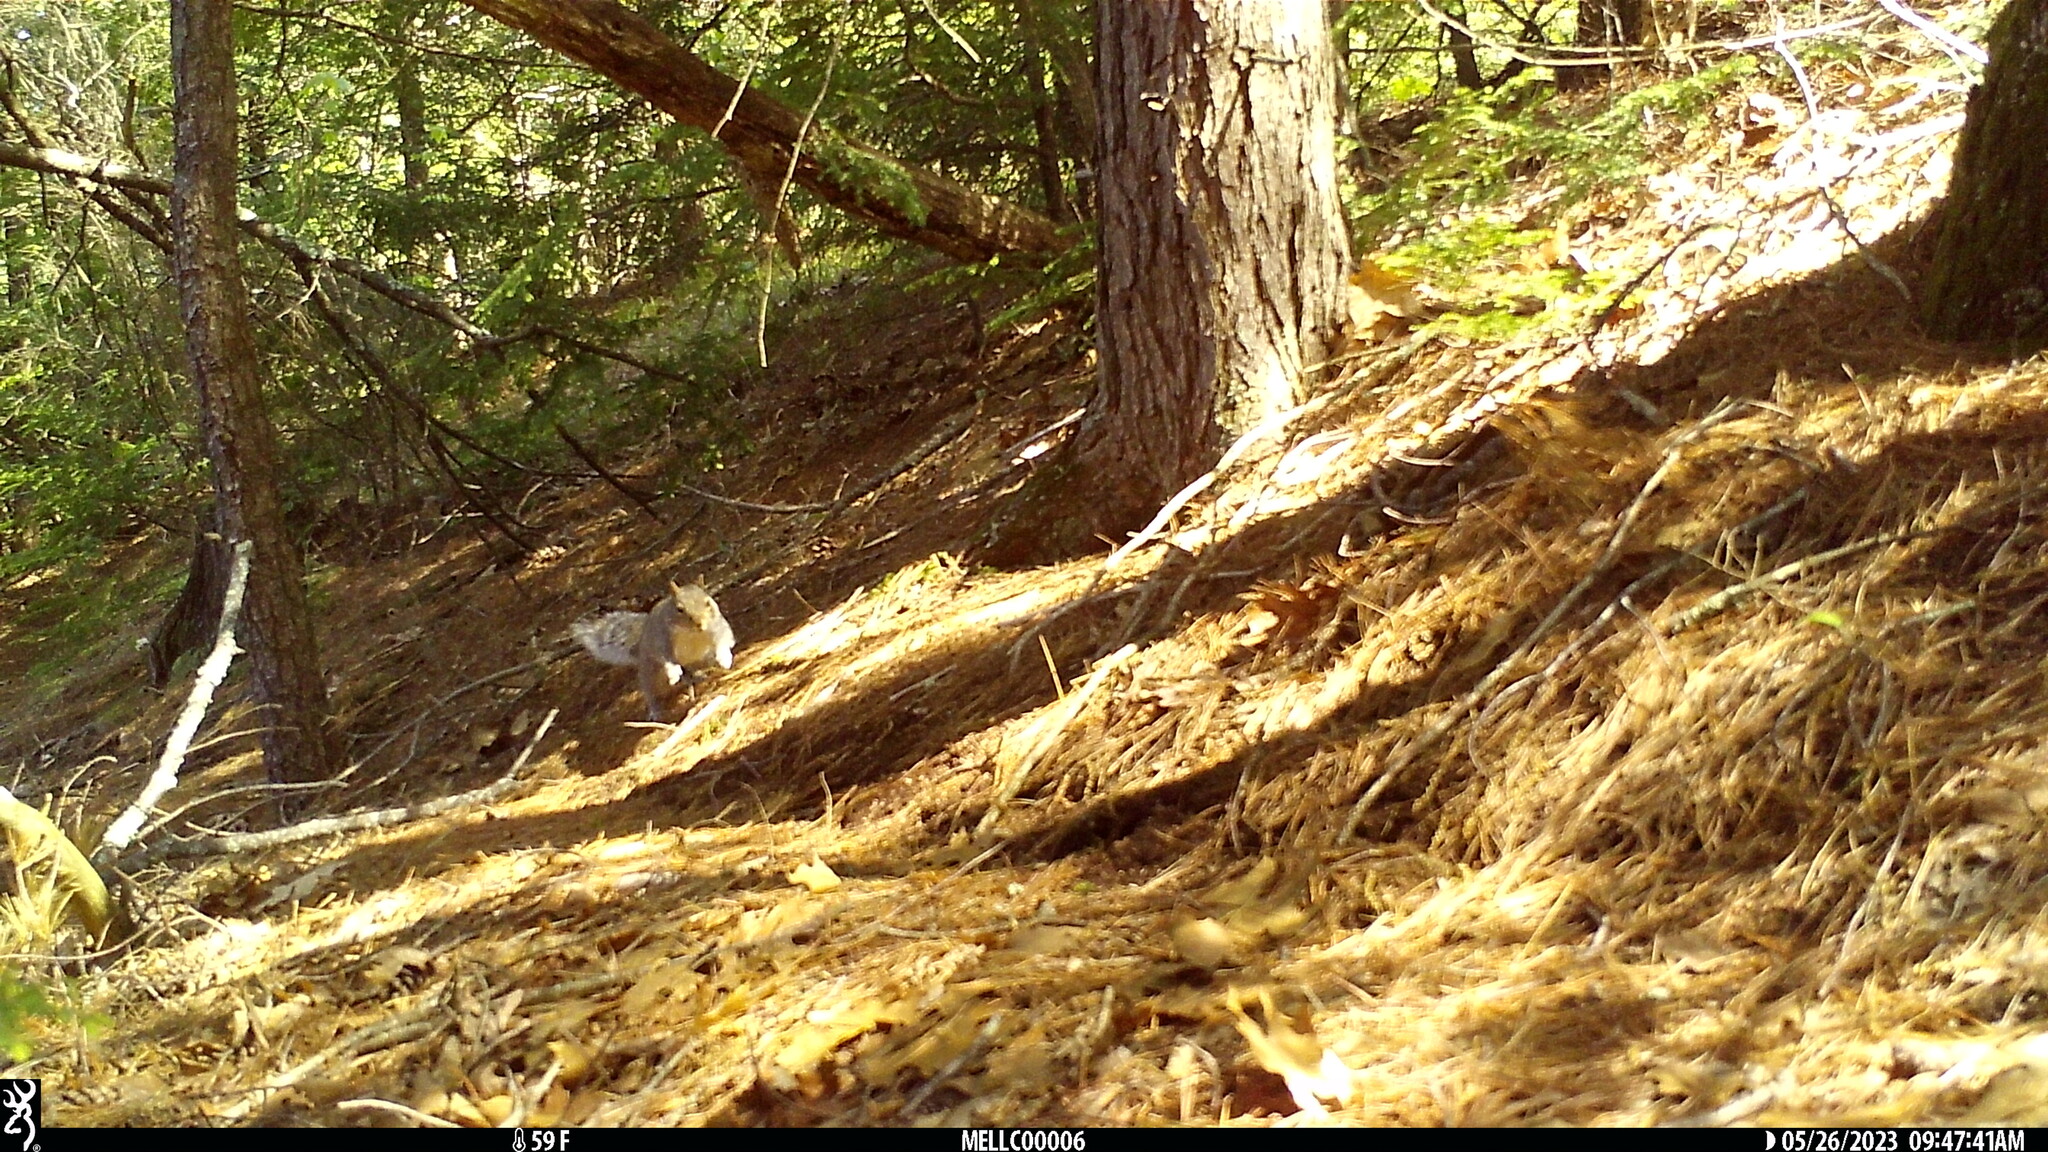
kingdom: Animalia
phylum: Chordata
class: Mammalia
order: Rodentia
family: Sciuridae
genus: Sciurus
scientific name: Sciurus carolinensis
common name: Eastern gray squirrel
